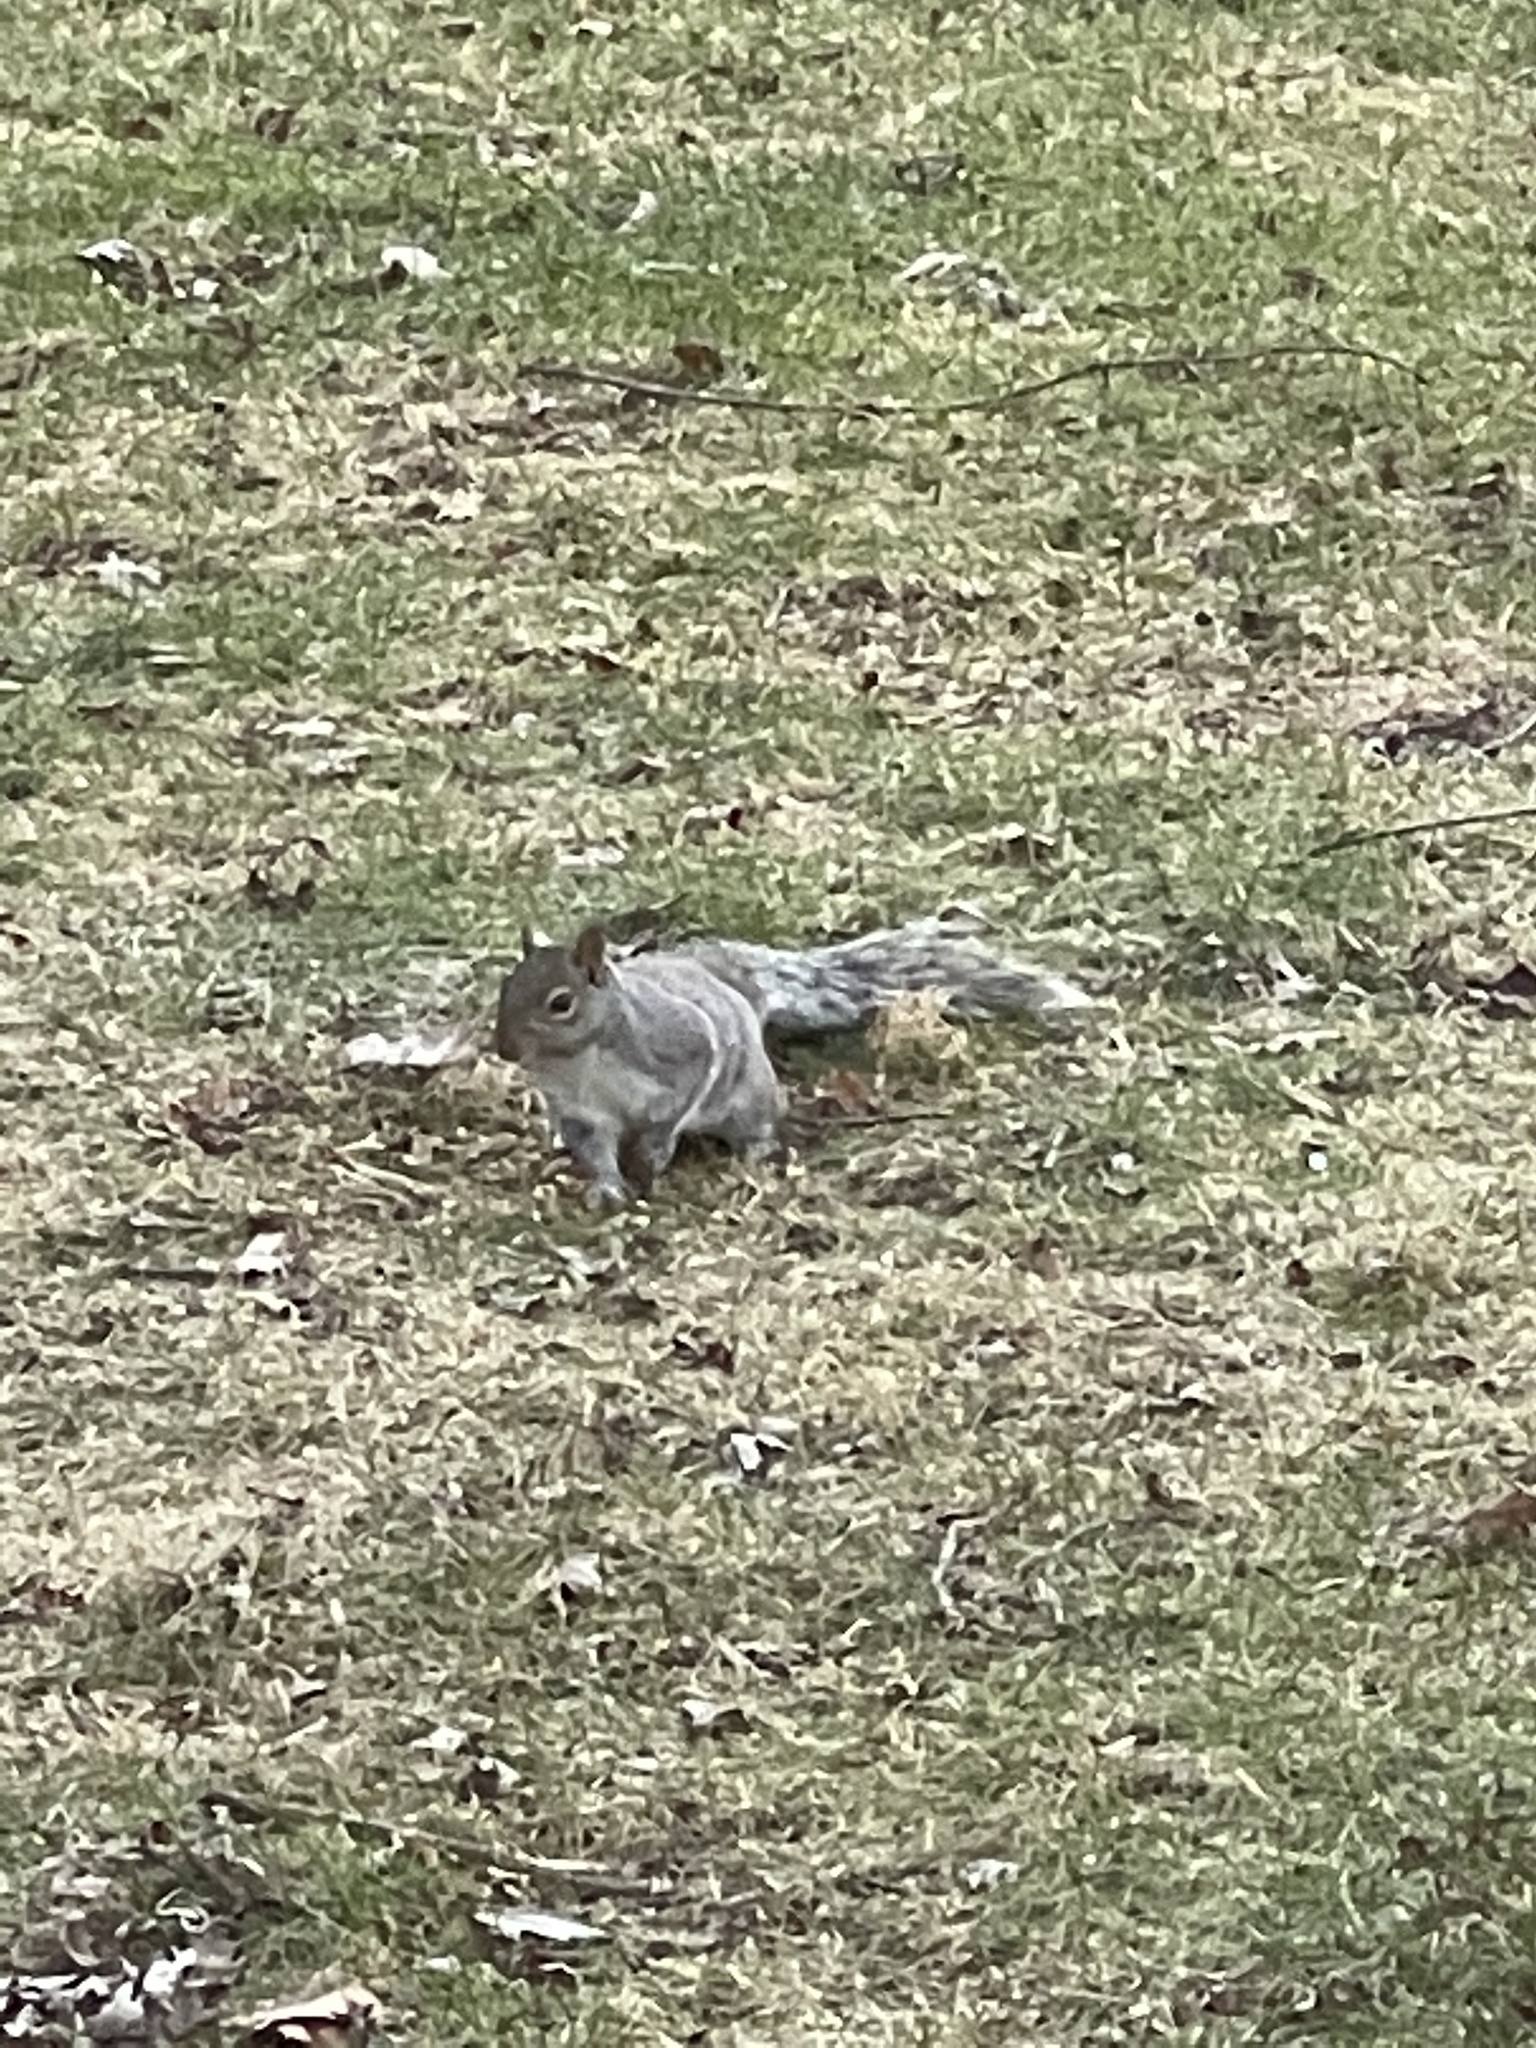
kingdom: Animalia
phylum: Chordata
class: Mammalia
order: Rodentia
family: Sciuridae
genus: Sciurus
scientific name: Sciurus carolinensis
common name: Eastern gray squirrel
